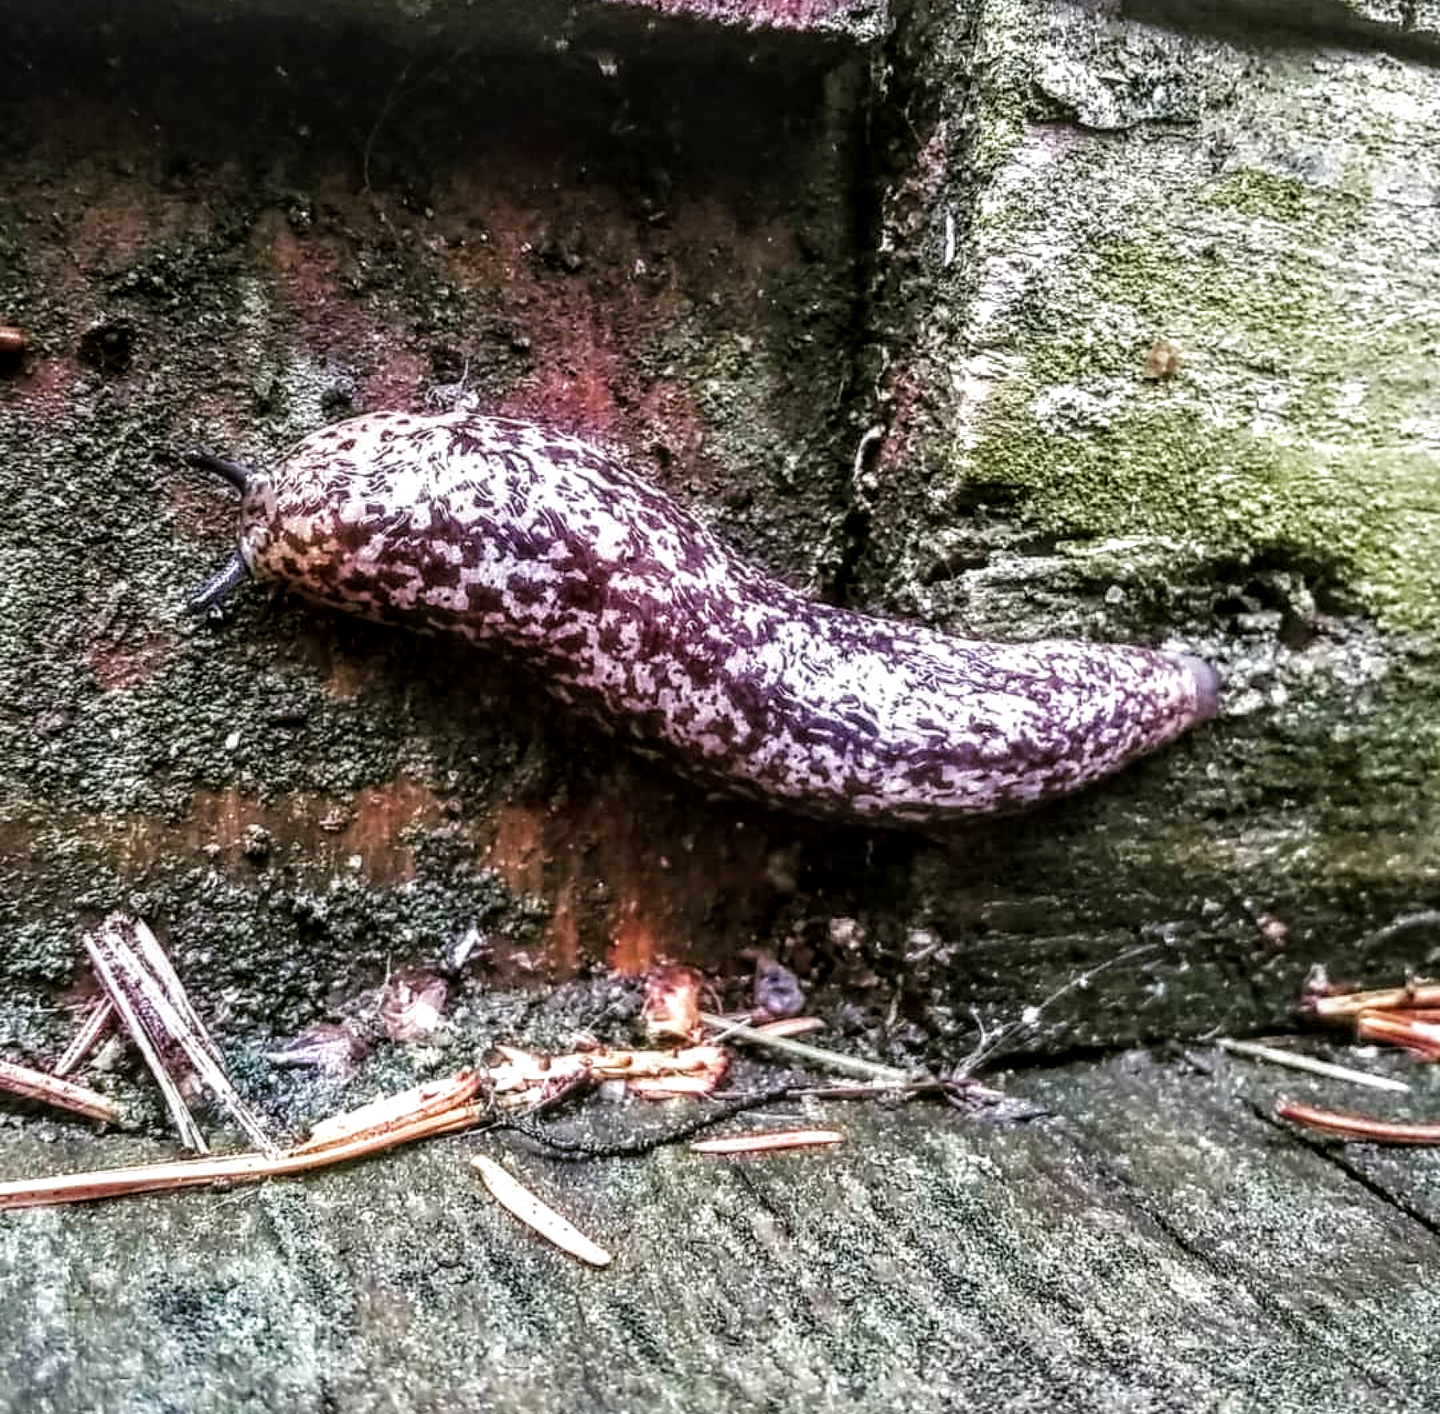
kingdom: Animalia
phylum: Mollusca
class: Gastropoda
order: Stylommatophora
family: Philomycidae
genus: Philomycus
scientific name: Philomycus flexuolaris
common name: Winding mantleslug
